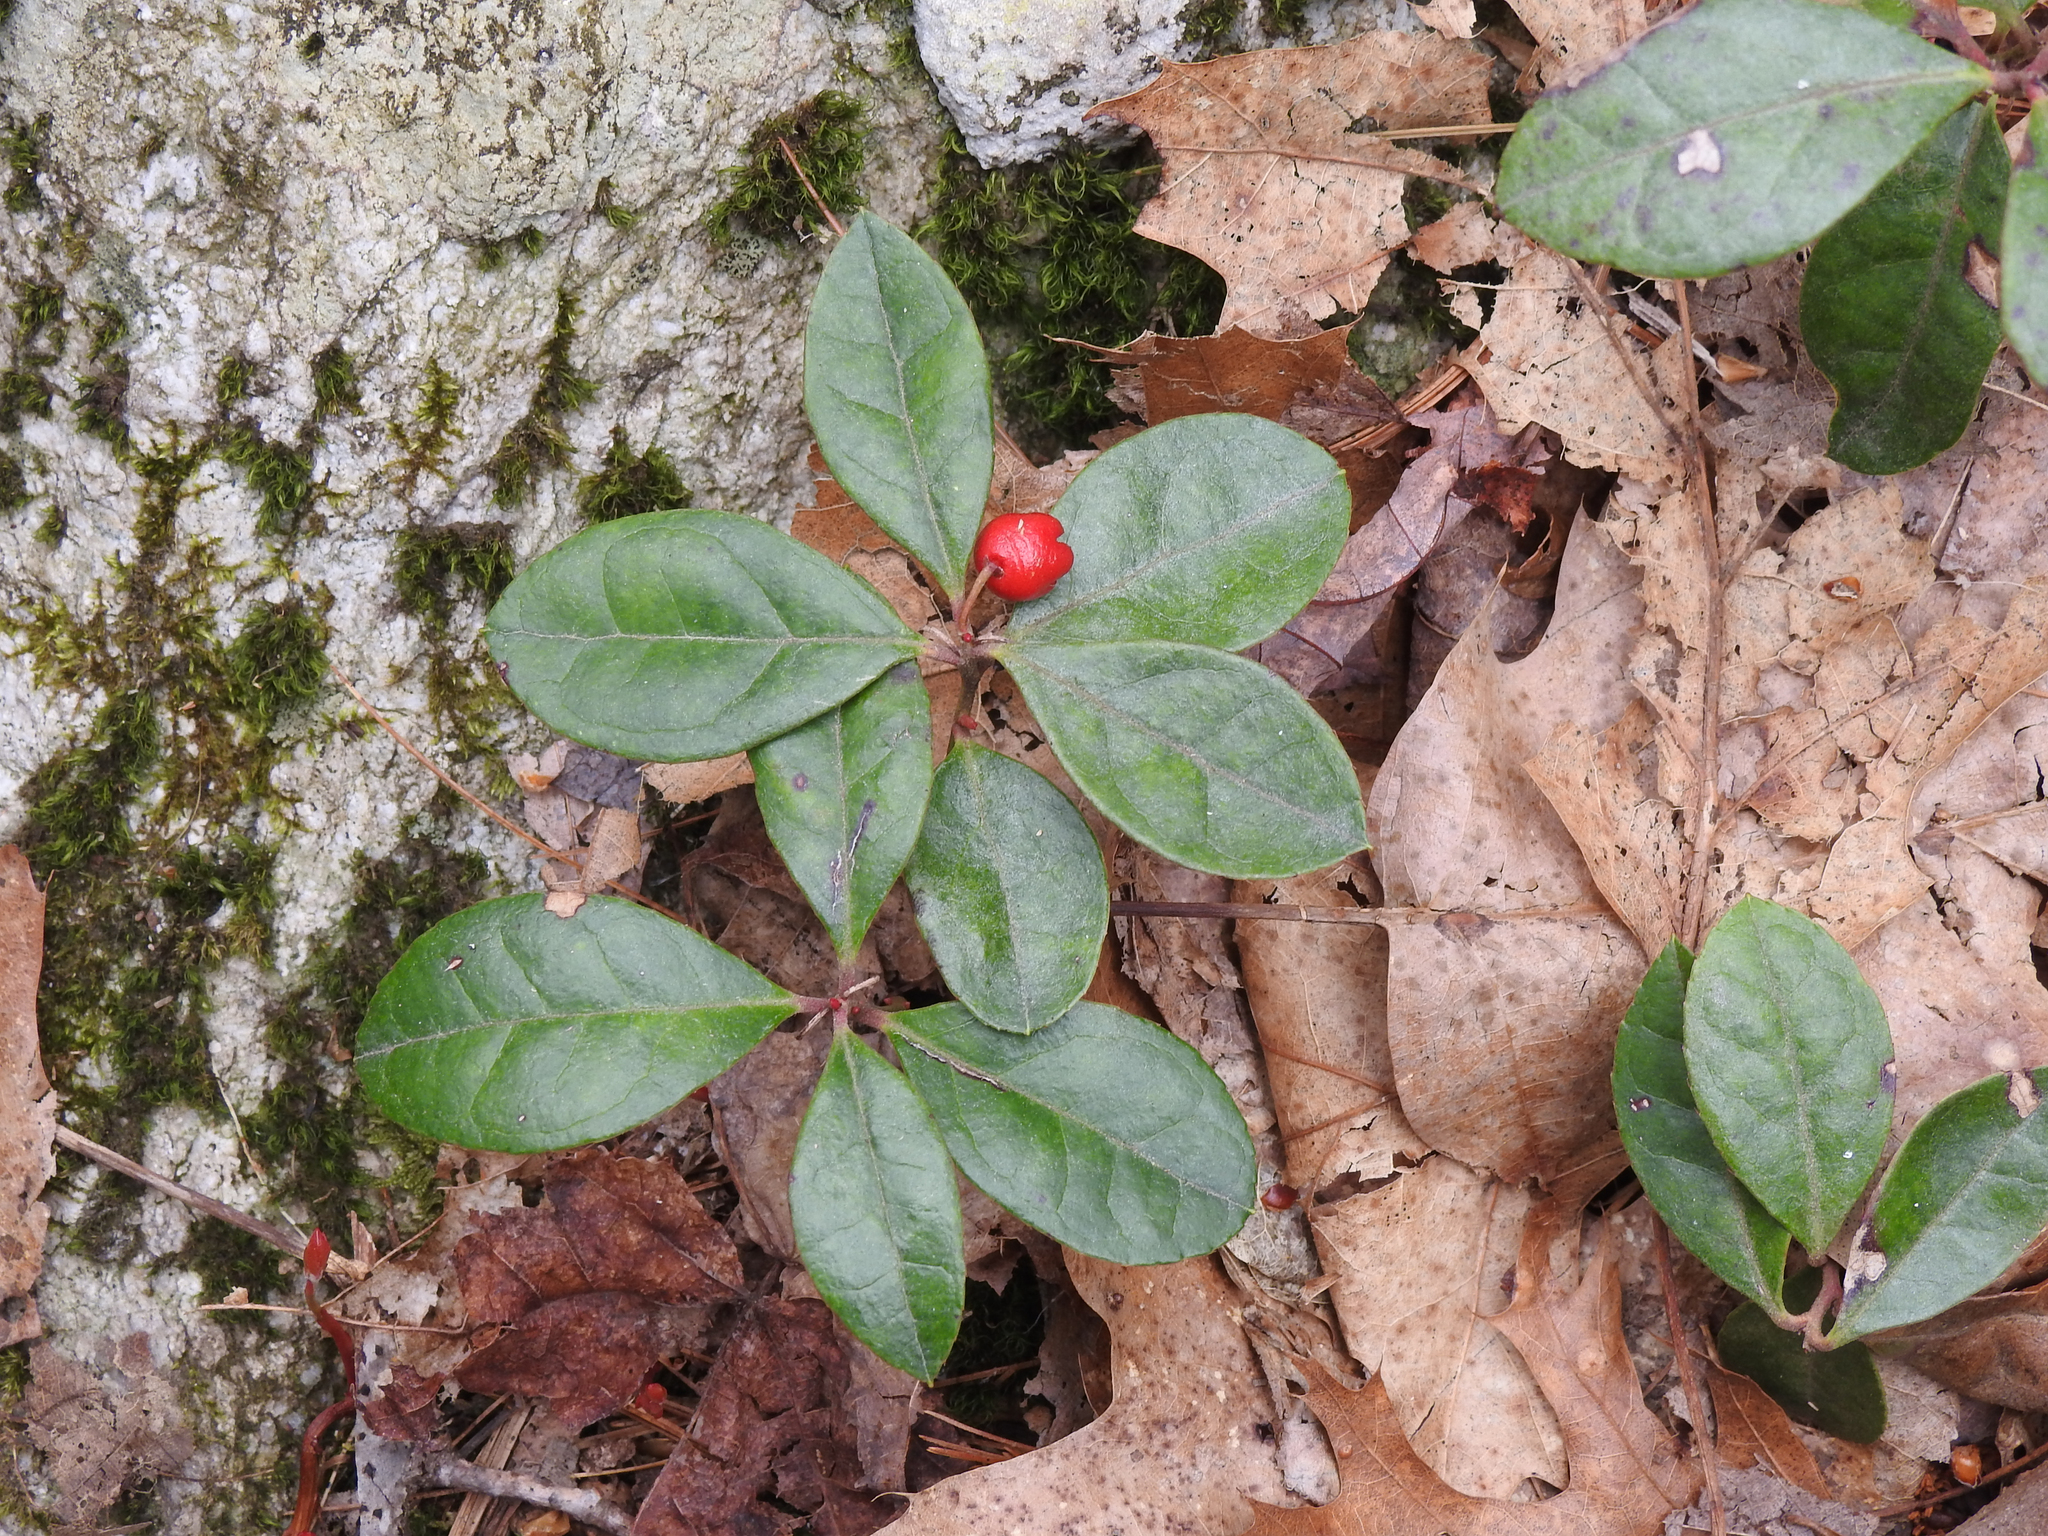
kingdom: Plantae
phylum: Tracheophyta
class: Magnoliopsida
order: Ericales
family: Ericaceae
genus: Gaultheria
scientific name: Gaultheria procumbens
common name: Checkerberry
